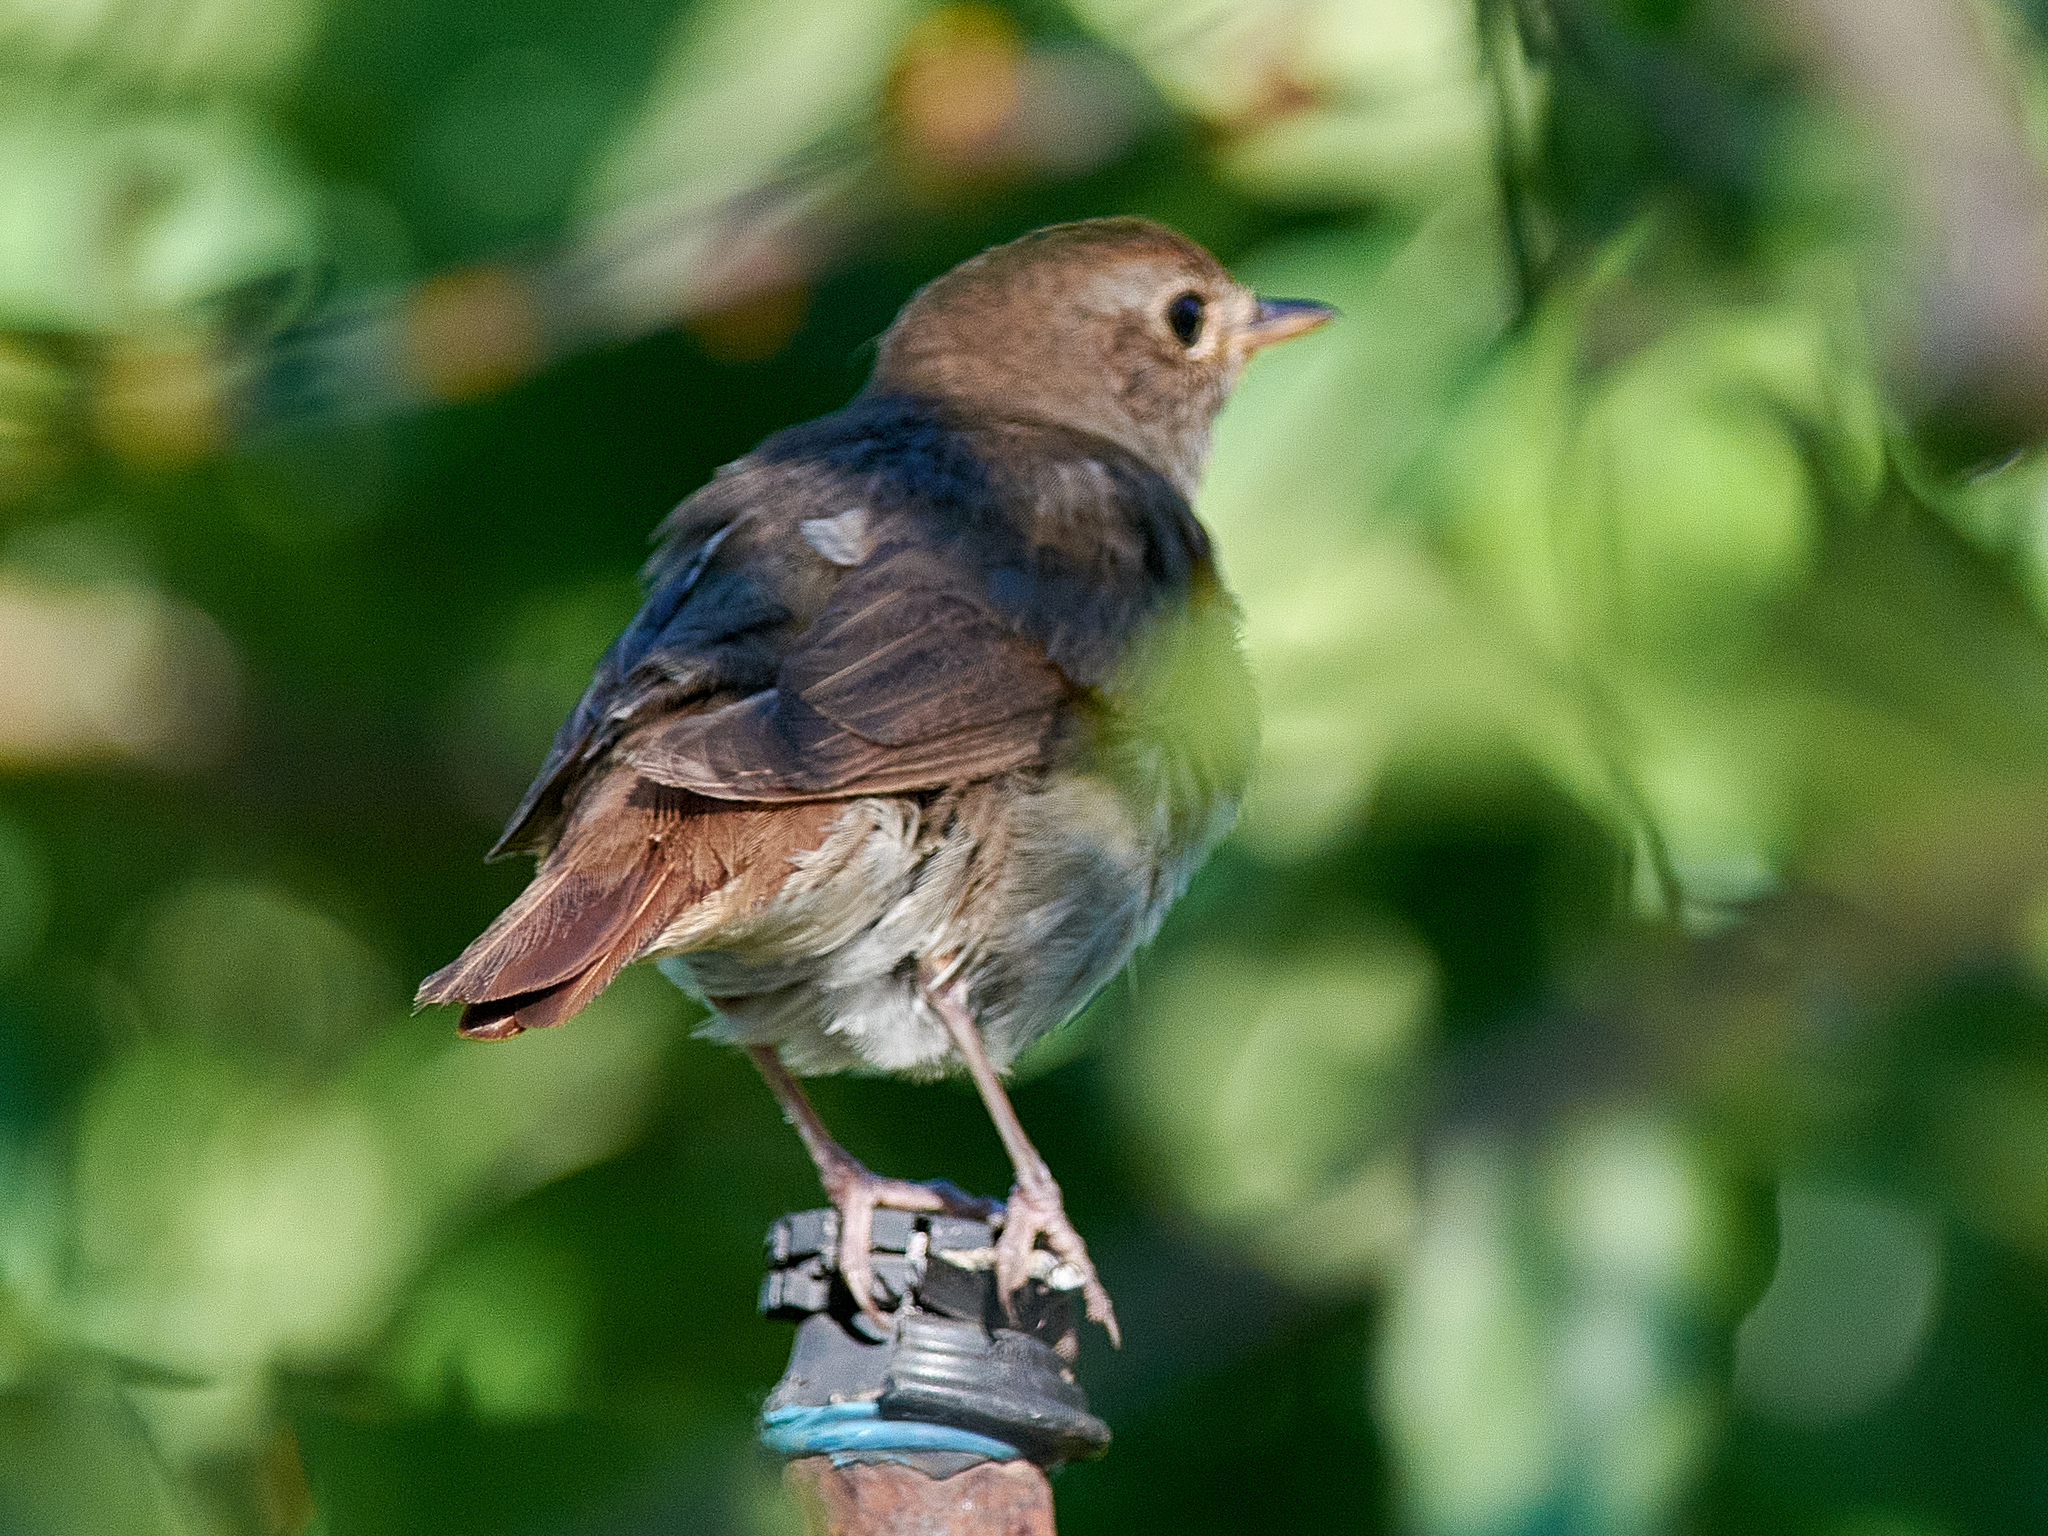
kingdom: Animalia
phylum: Chordata
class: Aves
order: Passeriformes
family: Muscicapidae
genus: Luscinia
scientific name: Luscinia luscinia
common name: Thrush nightingale
